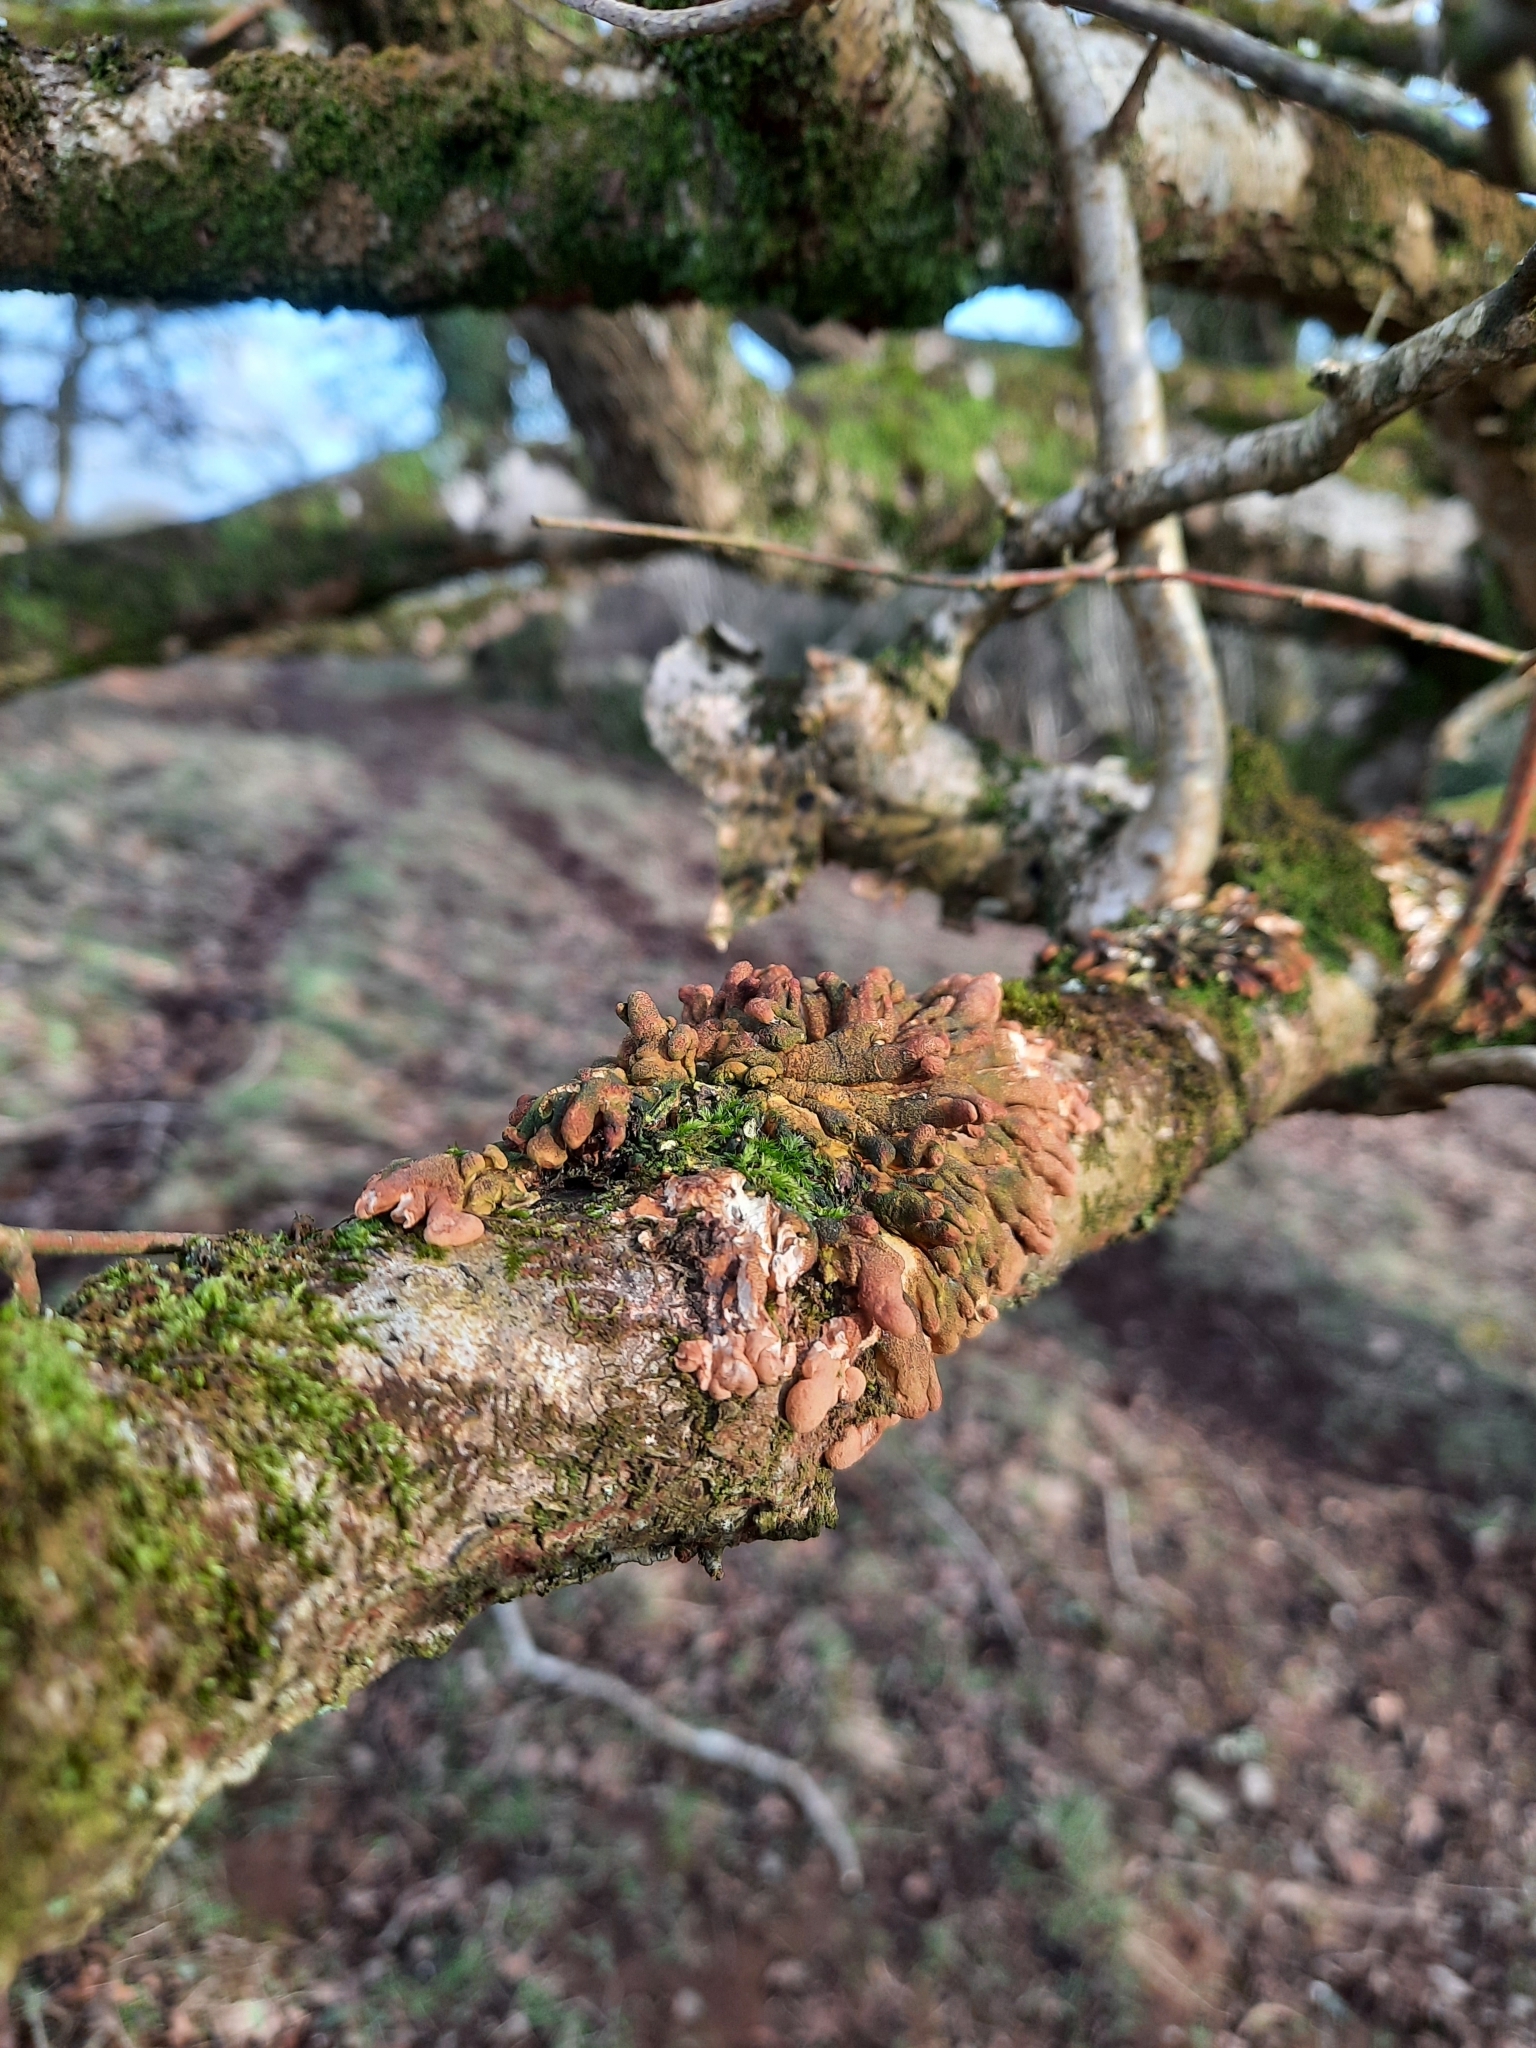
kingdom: Fungi
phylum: Ascomycota
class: Sordariomycetes
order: Hypocreales
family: Hypocreaceae
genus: Hypocreopsis
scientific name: Hypocreopsis rhododendri
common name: Hazel gloves
